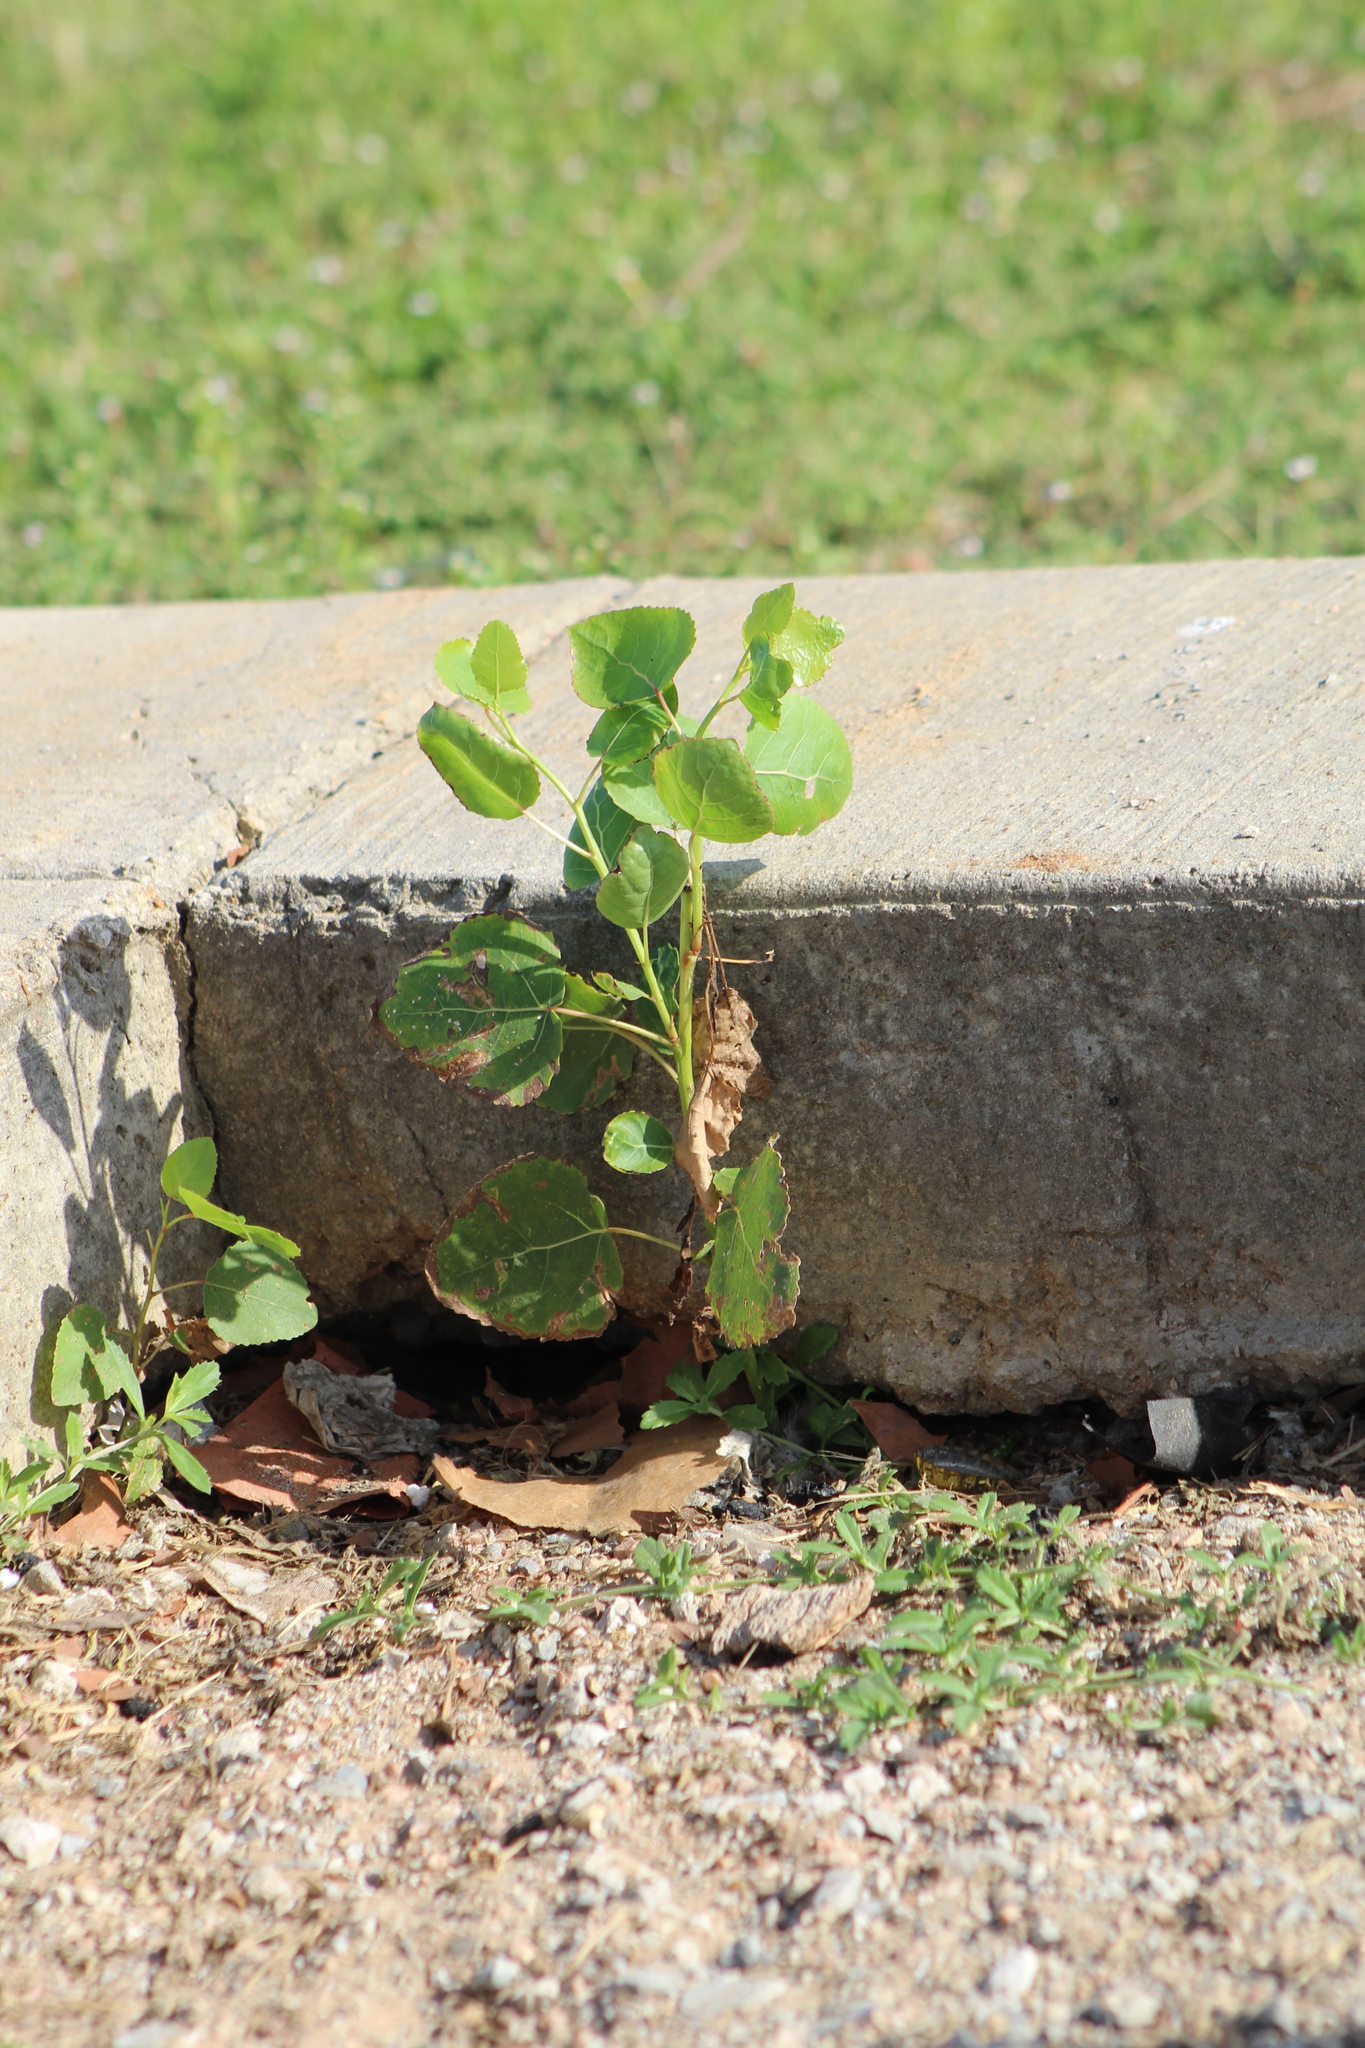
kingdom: Plantae
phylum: Tracheophyta
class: Magnoliopsida
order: Malpighiales
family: Salicaceae
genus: Populus
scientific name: Populus deltoides
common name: Eastern cottonwood
